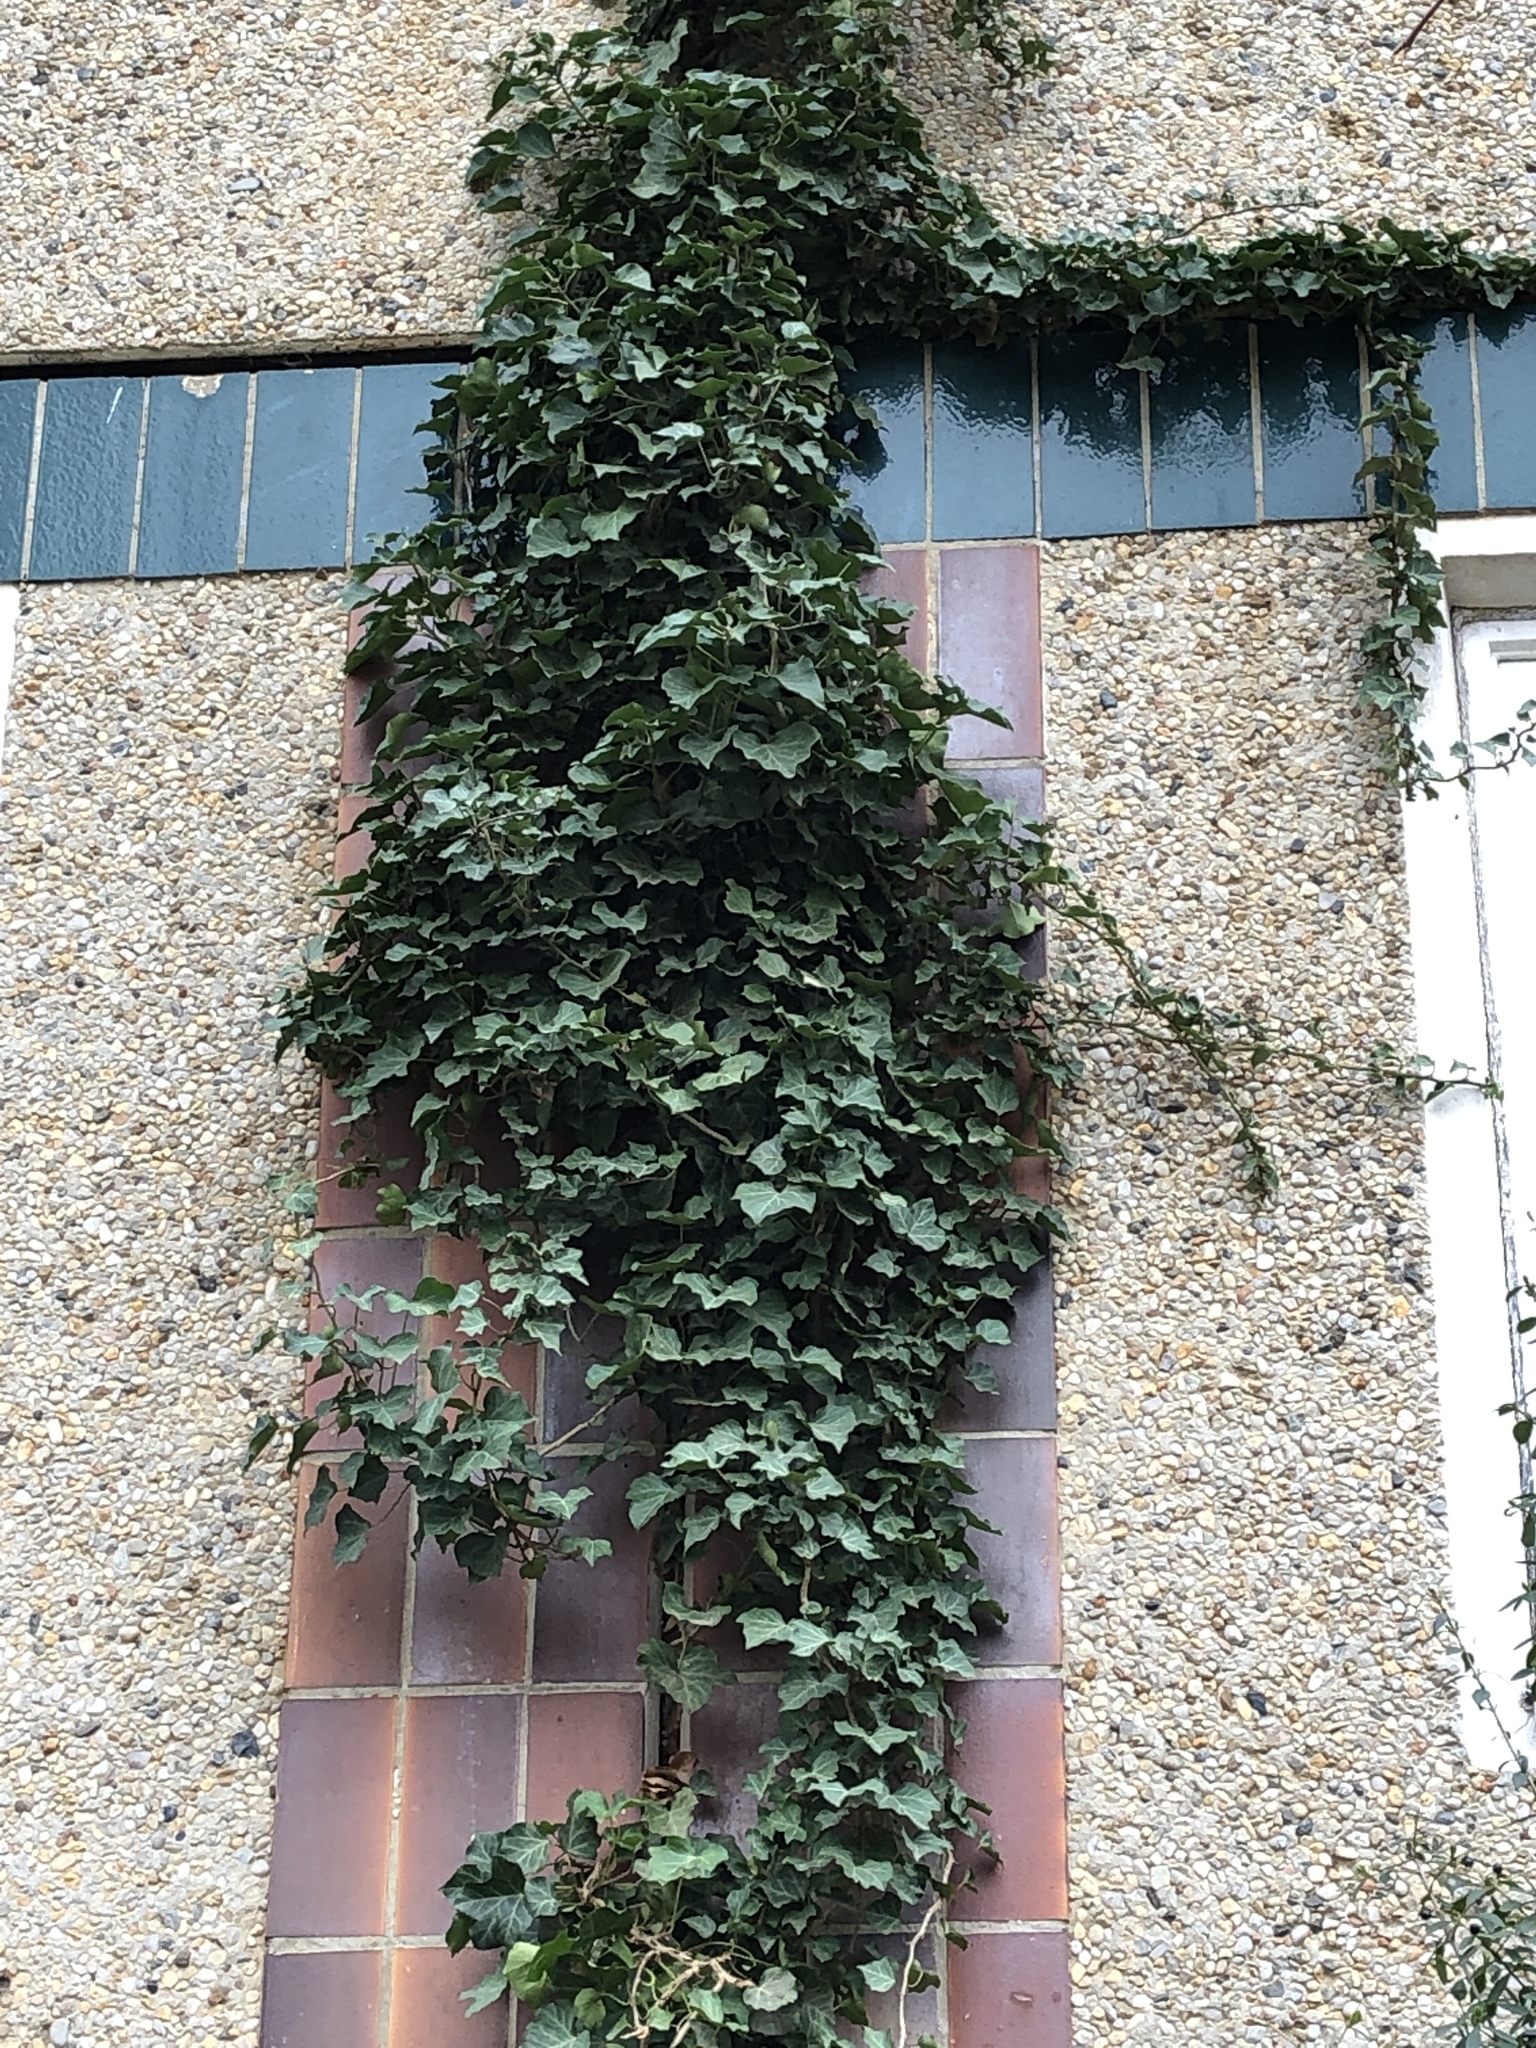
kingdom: Plantae
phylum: Tracheophyta
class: Magnoliopsida
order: Apiales
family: Araliaceae
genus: Hedera
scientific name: Hedera helix
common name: Ivy
